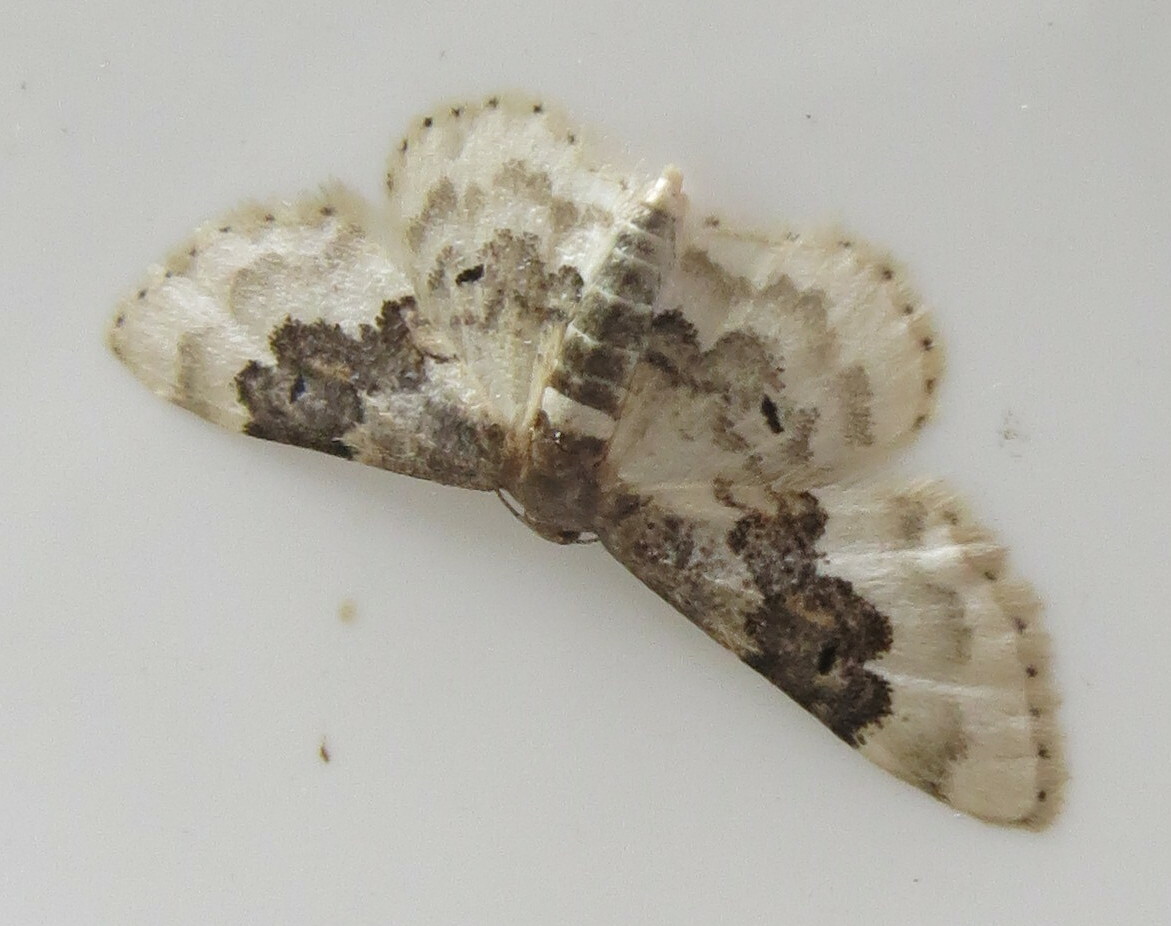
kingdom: Animalia
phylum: Arthropoda
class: Insecta
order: Lepidoptera
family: Geometridae
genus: Idaea
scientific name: Idaea rusticata
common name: Least carpet
